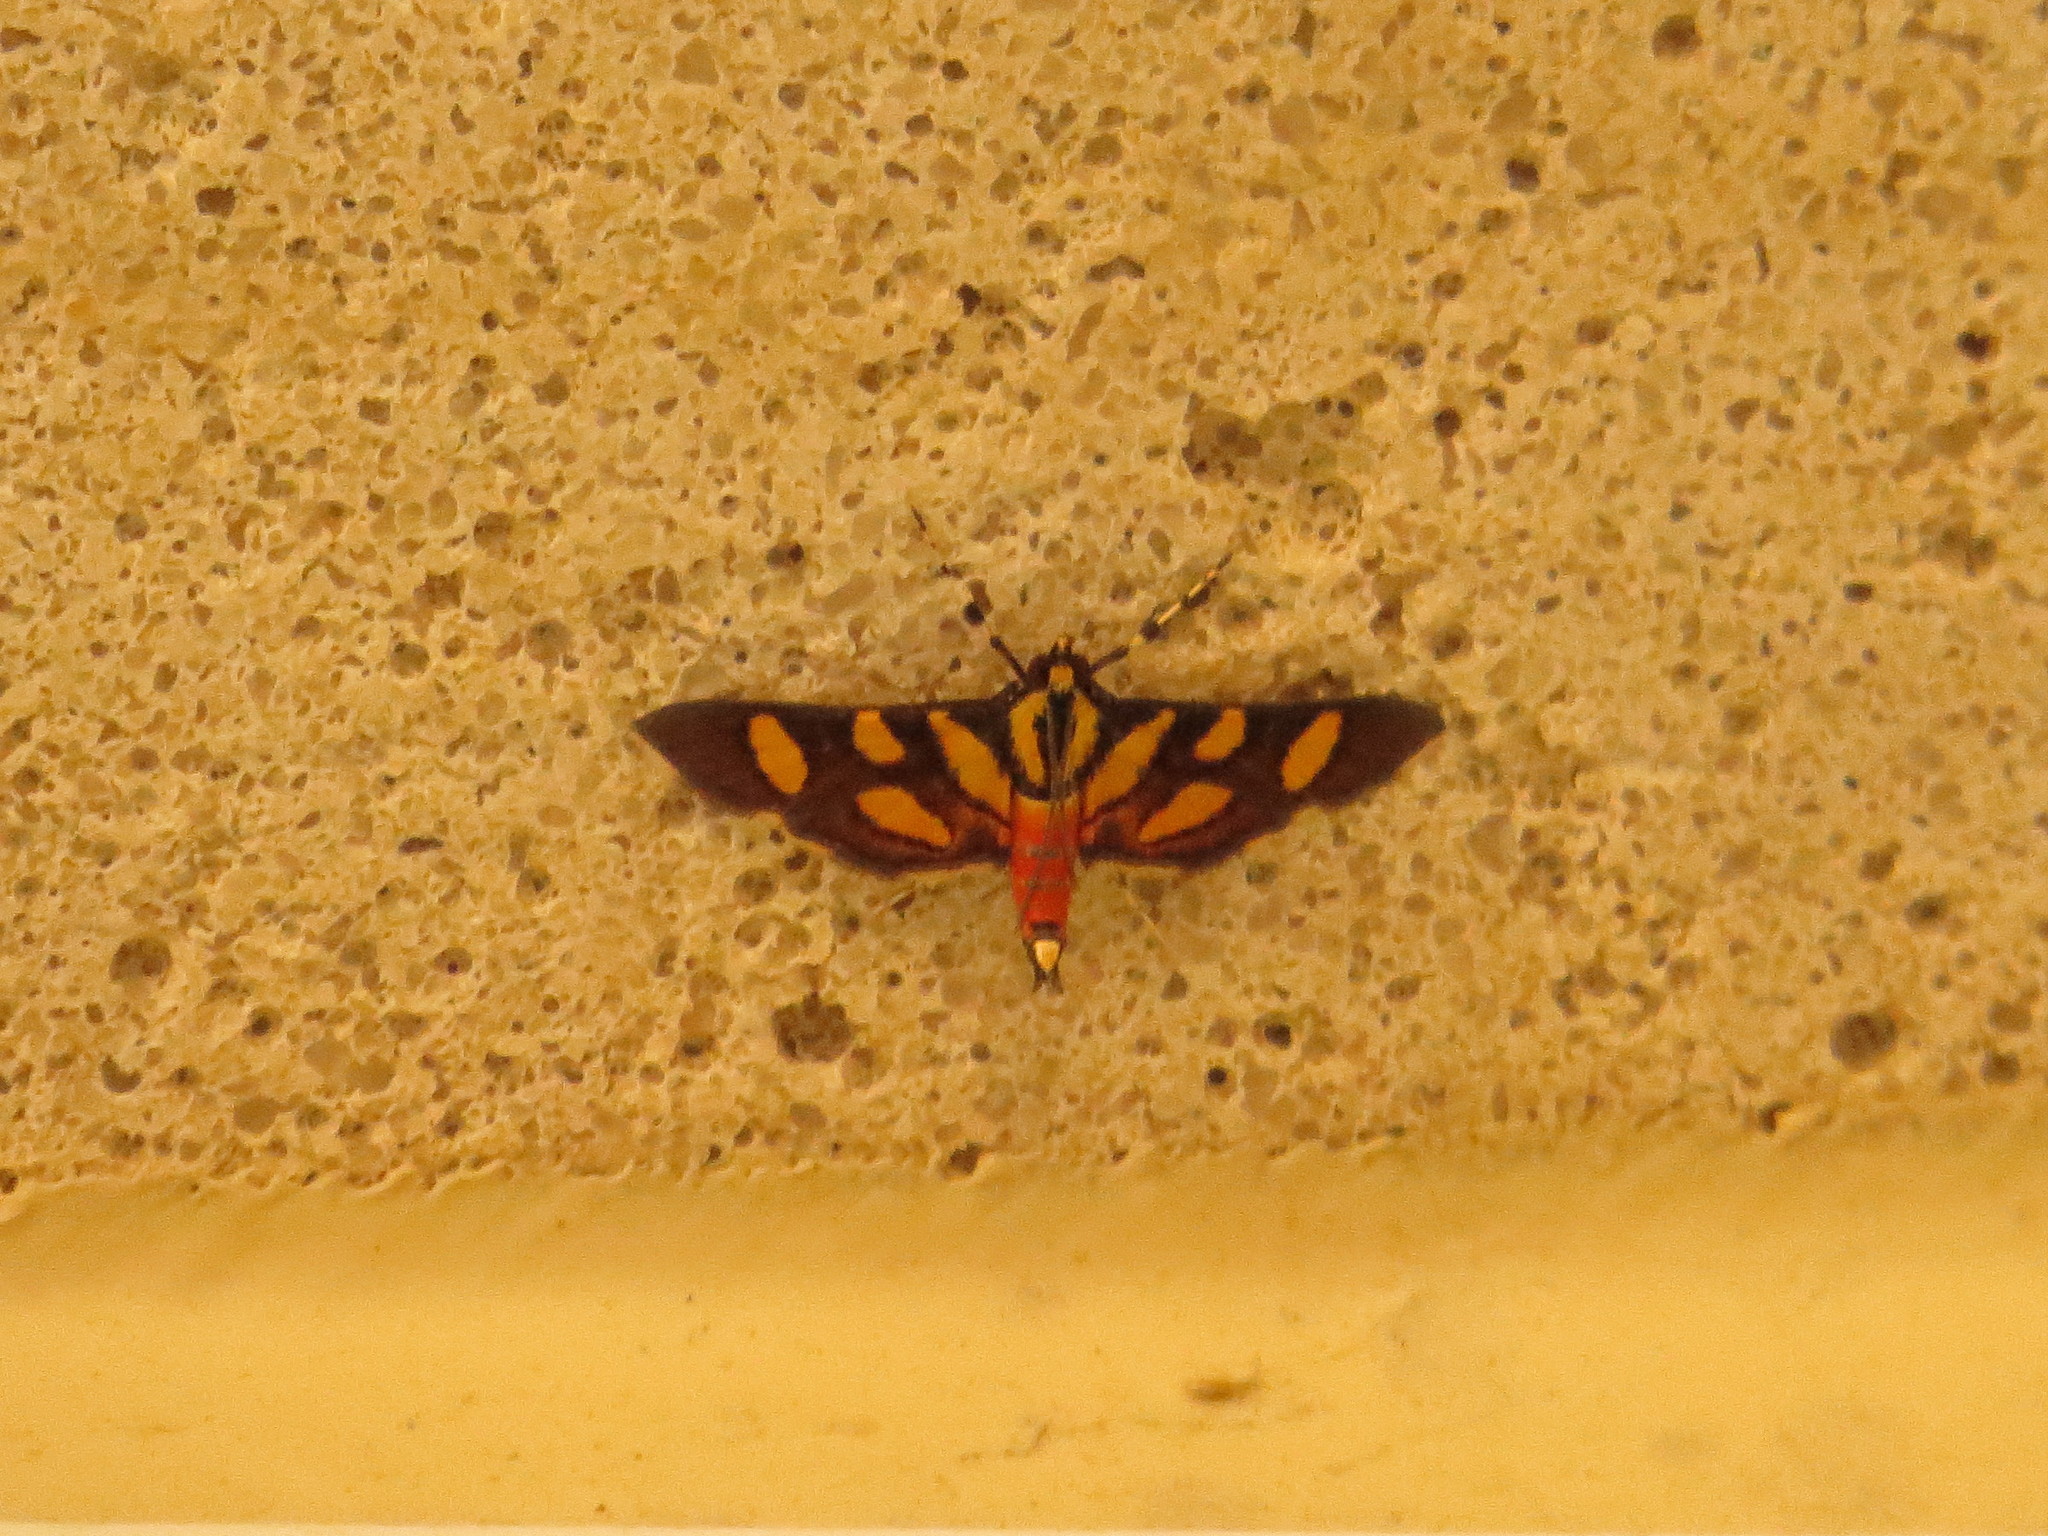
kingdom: Animalia
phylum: Arthropoda
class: Insecta
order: Lepidoptera
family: Crambidae
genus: Syngamia
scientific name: Syngamia florella
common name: Orange-spotted flower moth
